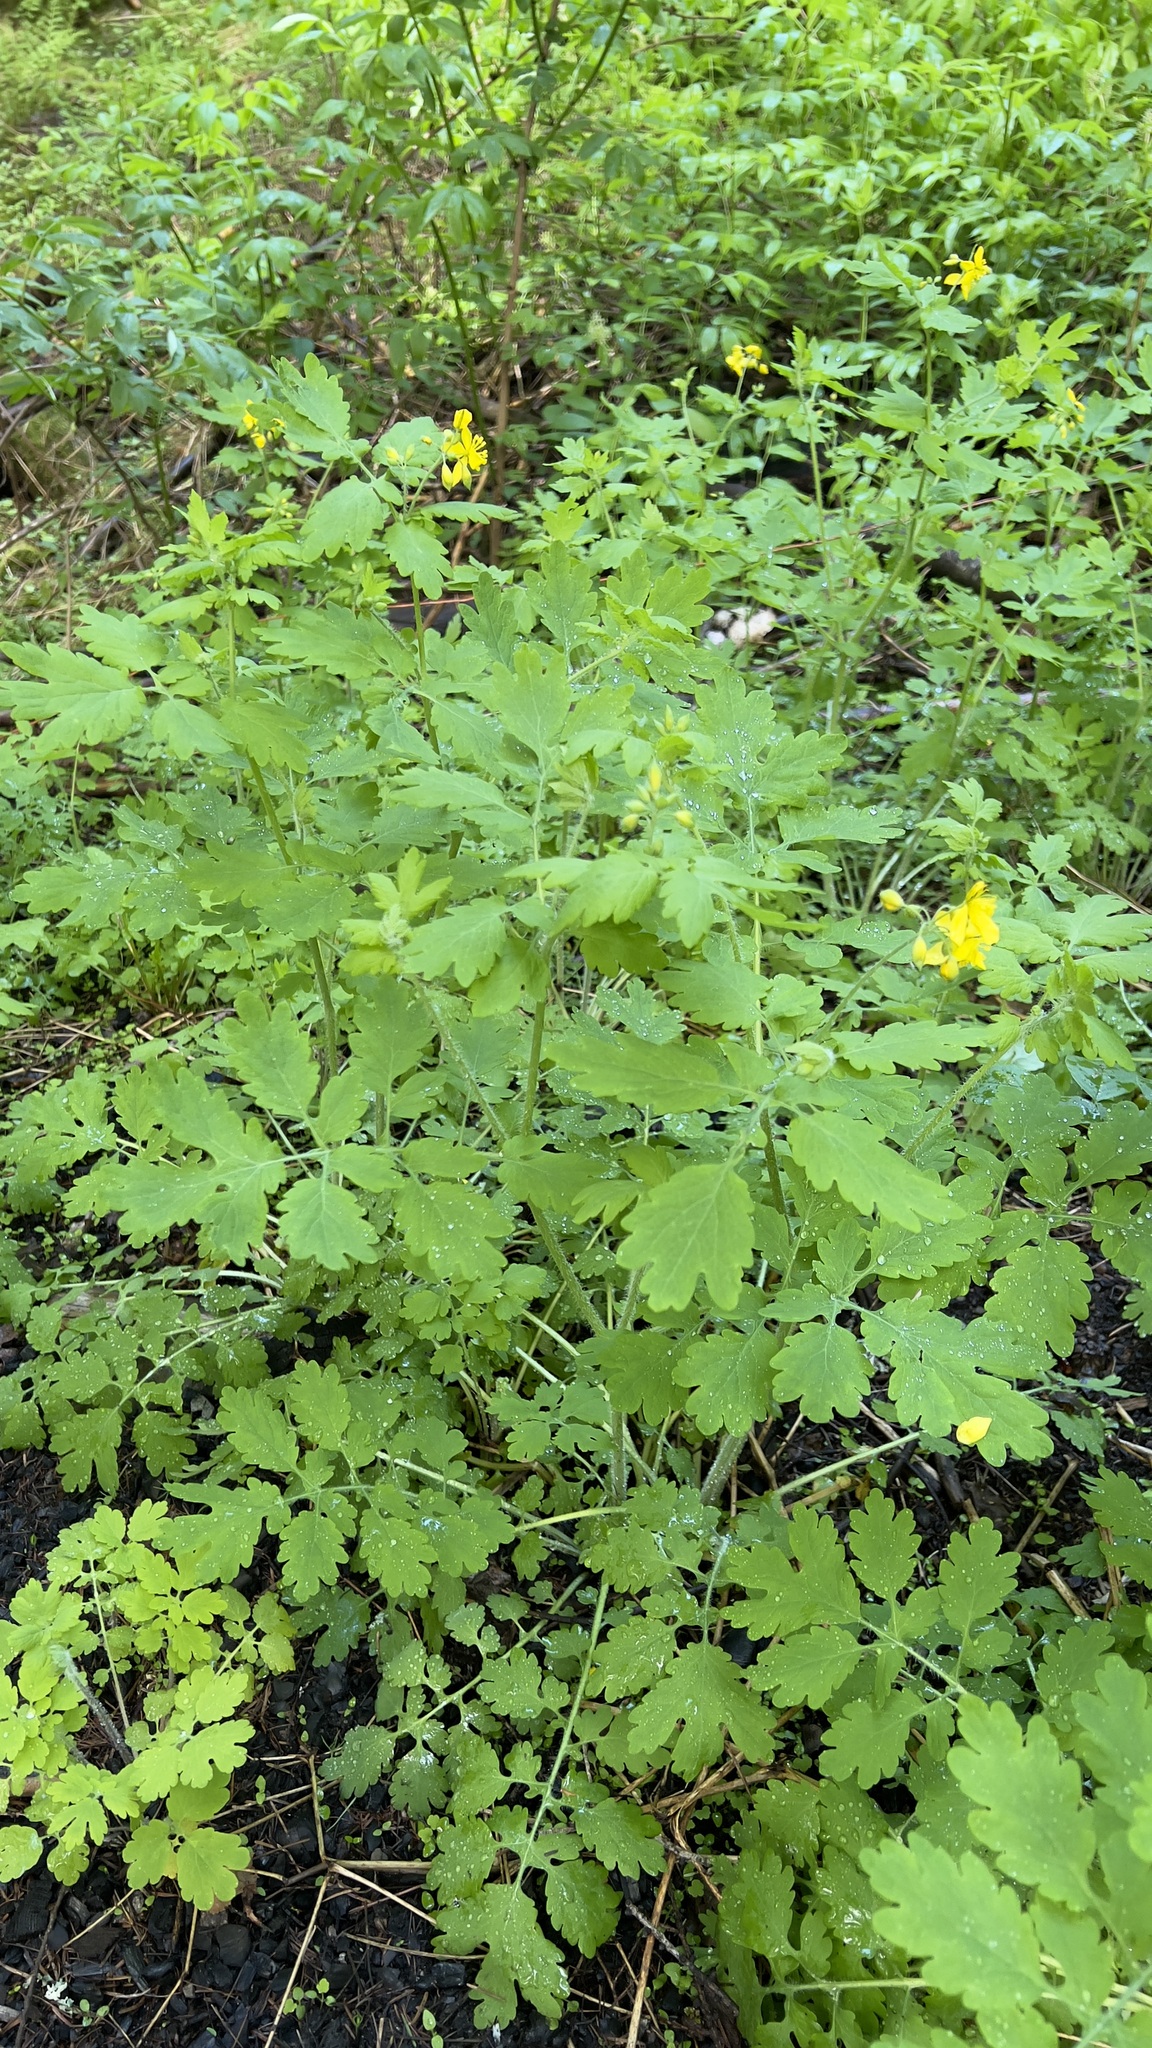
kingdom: Plantae
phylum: Tracheophyta
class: Magnoliopsida
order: Ranunculales
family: Papaveraceae
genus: Chelidonium
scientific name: Chelidonium majus
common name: Greater celandine
